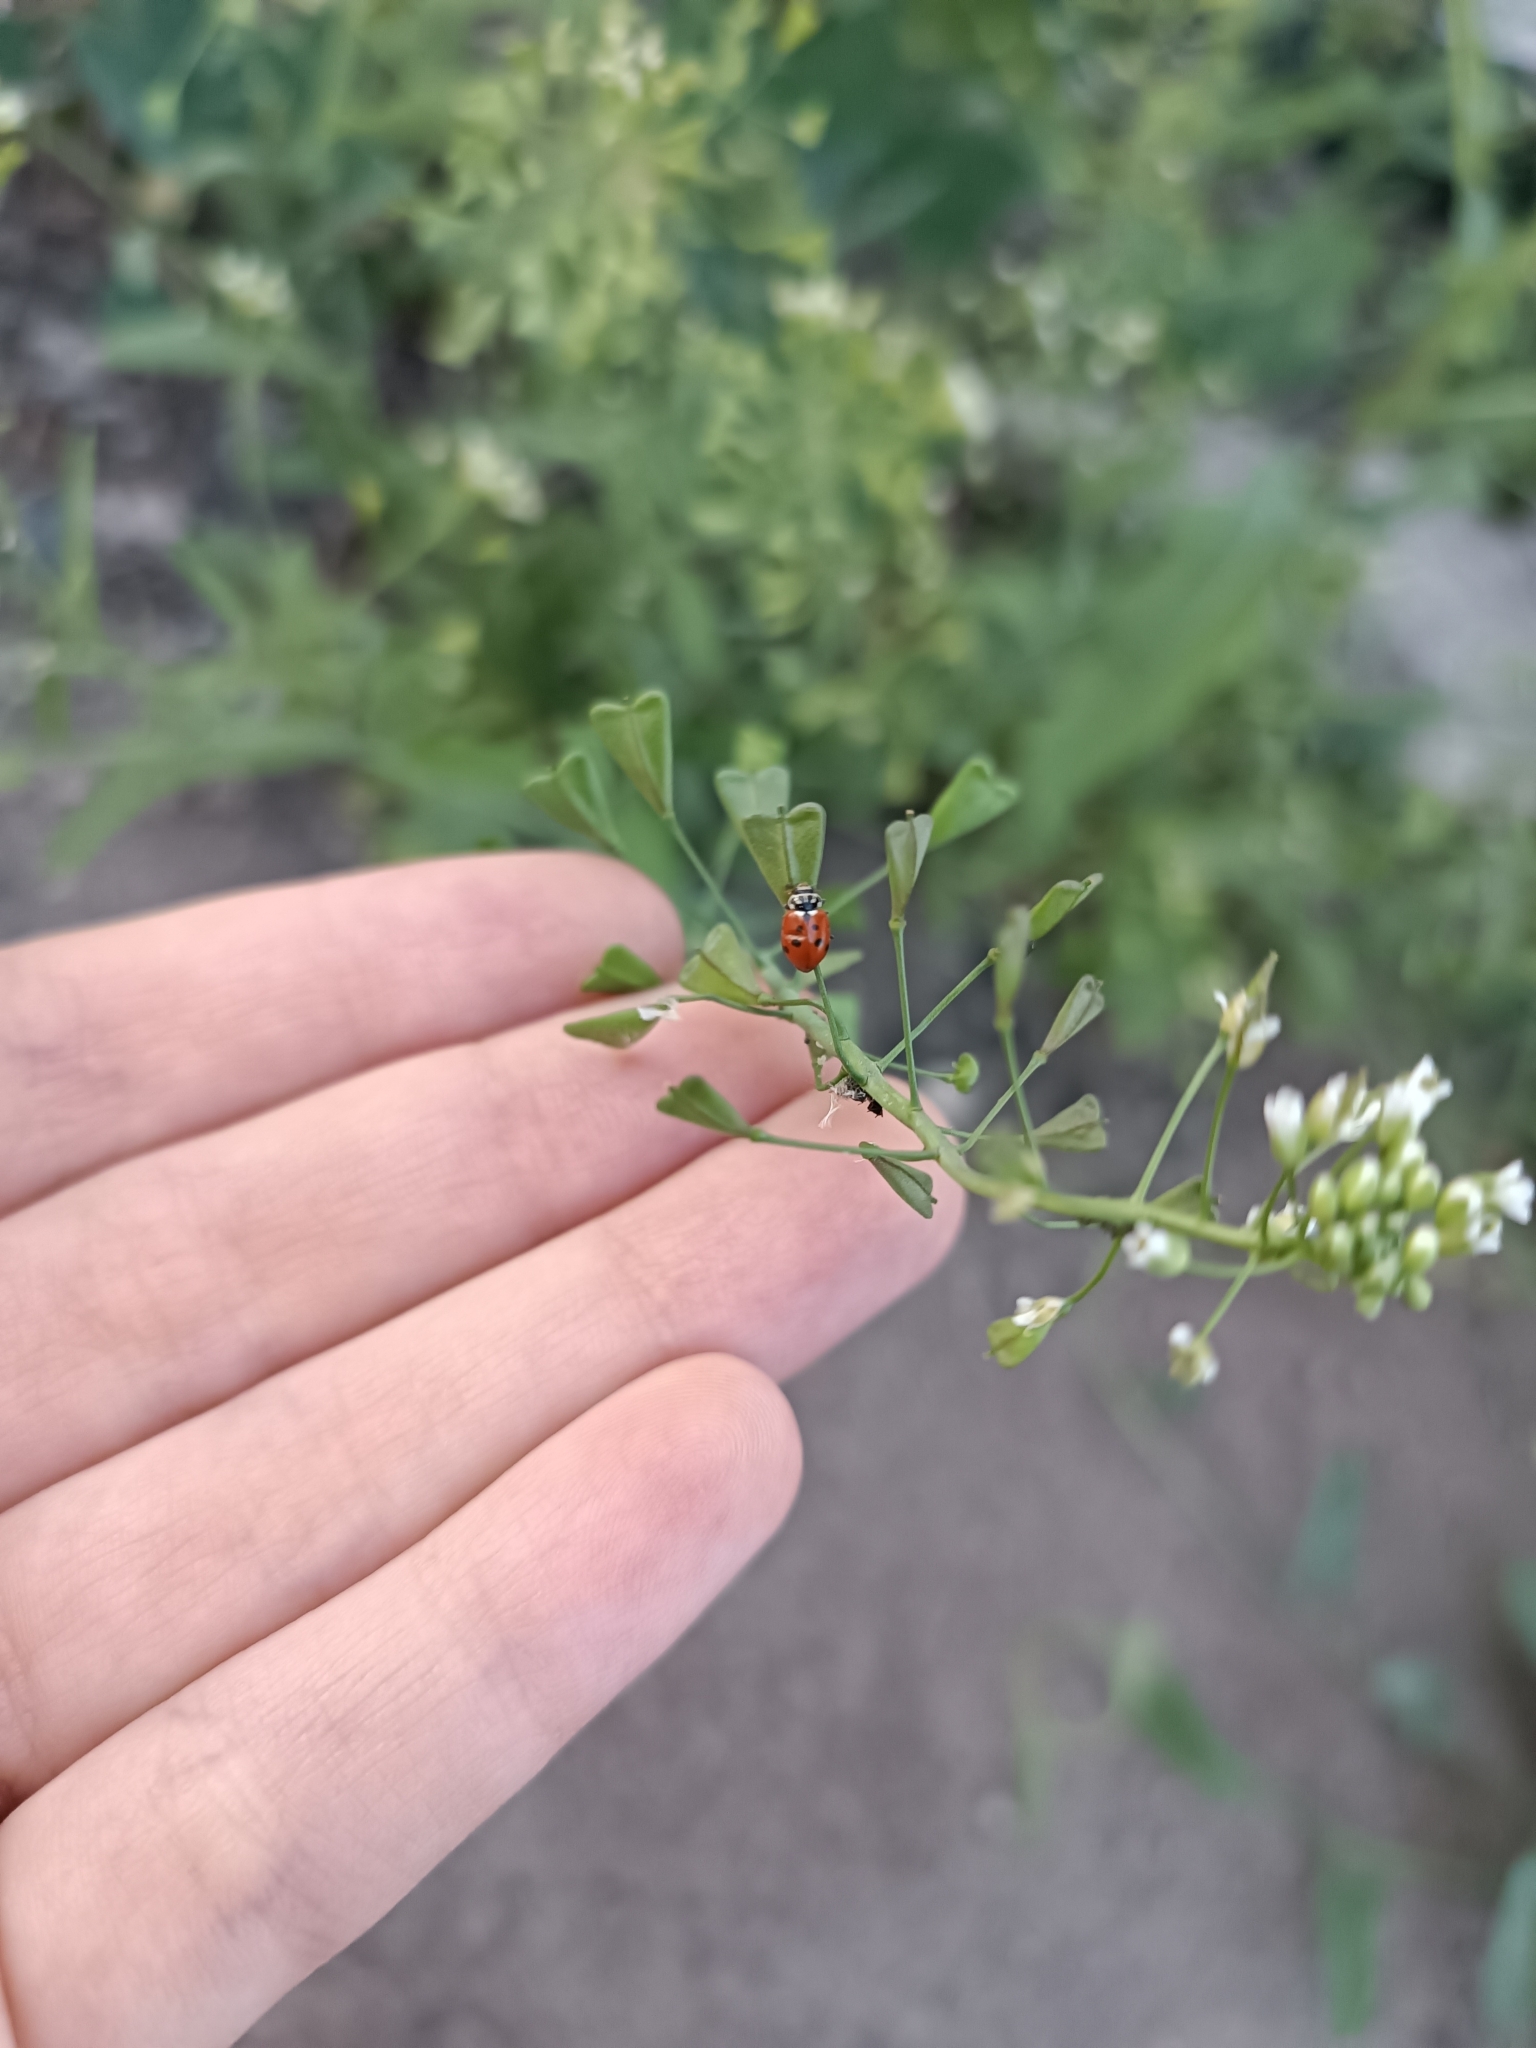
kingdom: Animalia
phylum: Arthropoda
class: Insecta
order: Coleoptera
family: Coccinellidae
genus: Hippodamia
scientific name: Hippodamia variegata
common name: Ladybird beetle
